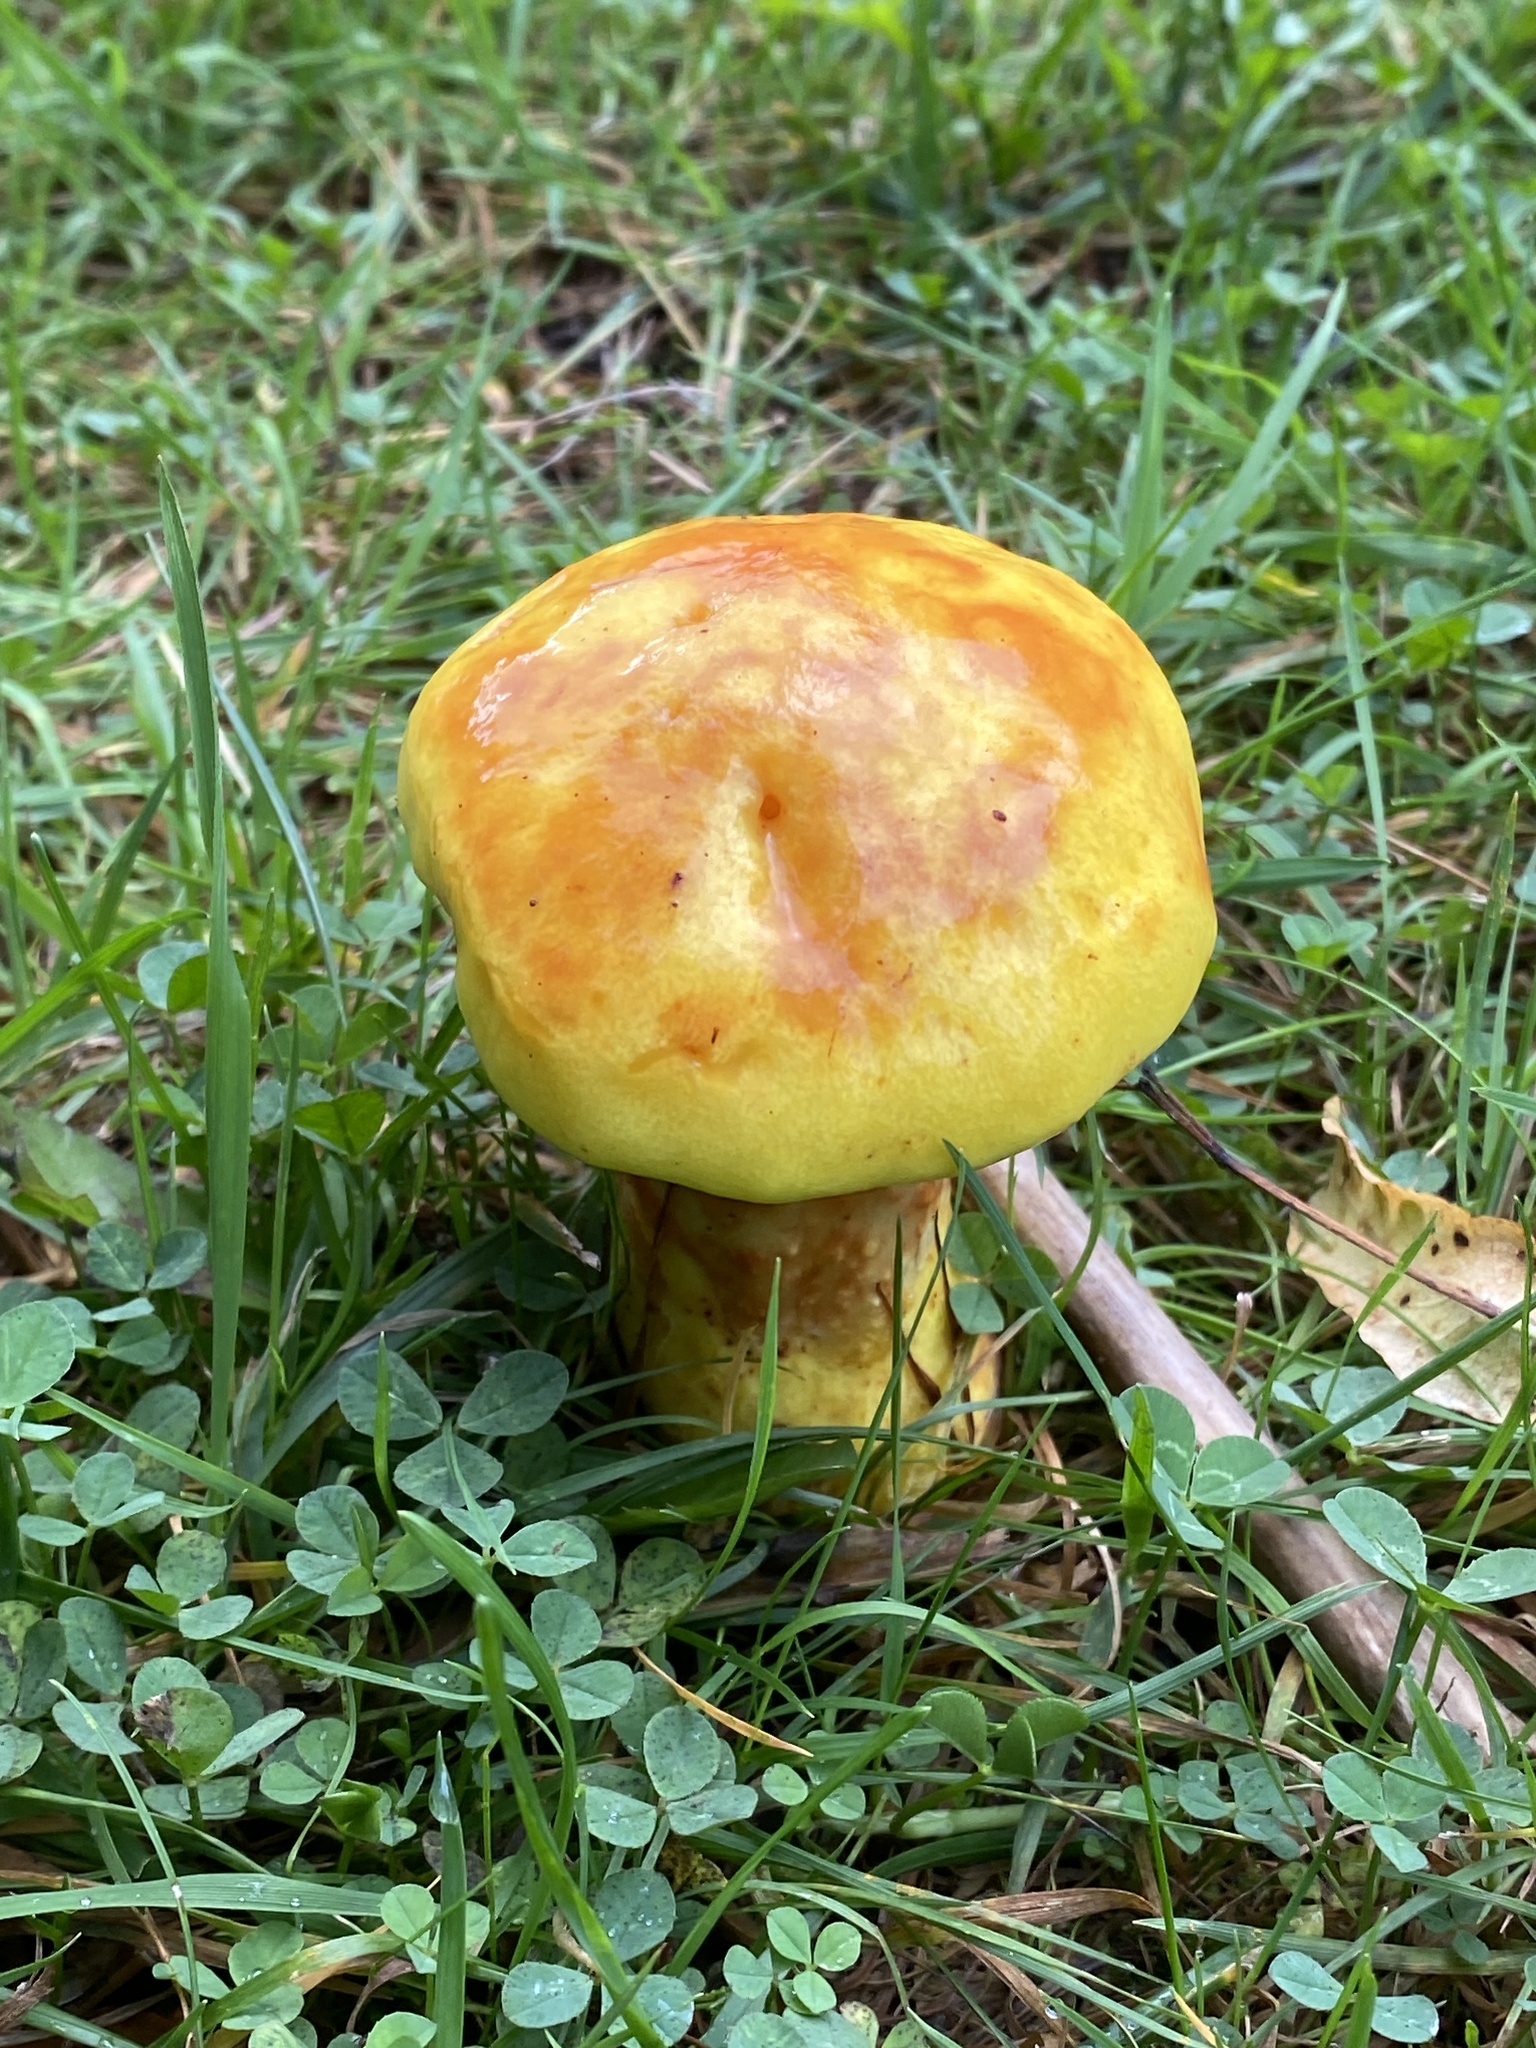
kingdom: Fungi
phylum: Basidiomycota
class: Agaricomycetes
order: Boletales
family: Suillaceae
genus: Suillus
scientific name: Suillus grevillei
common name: Larch bolete
